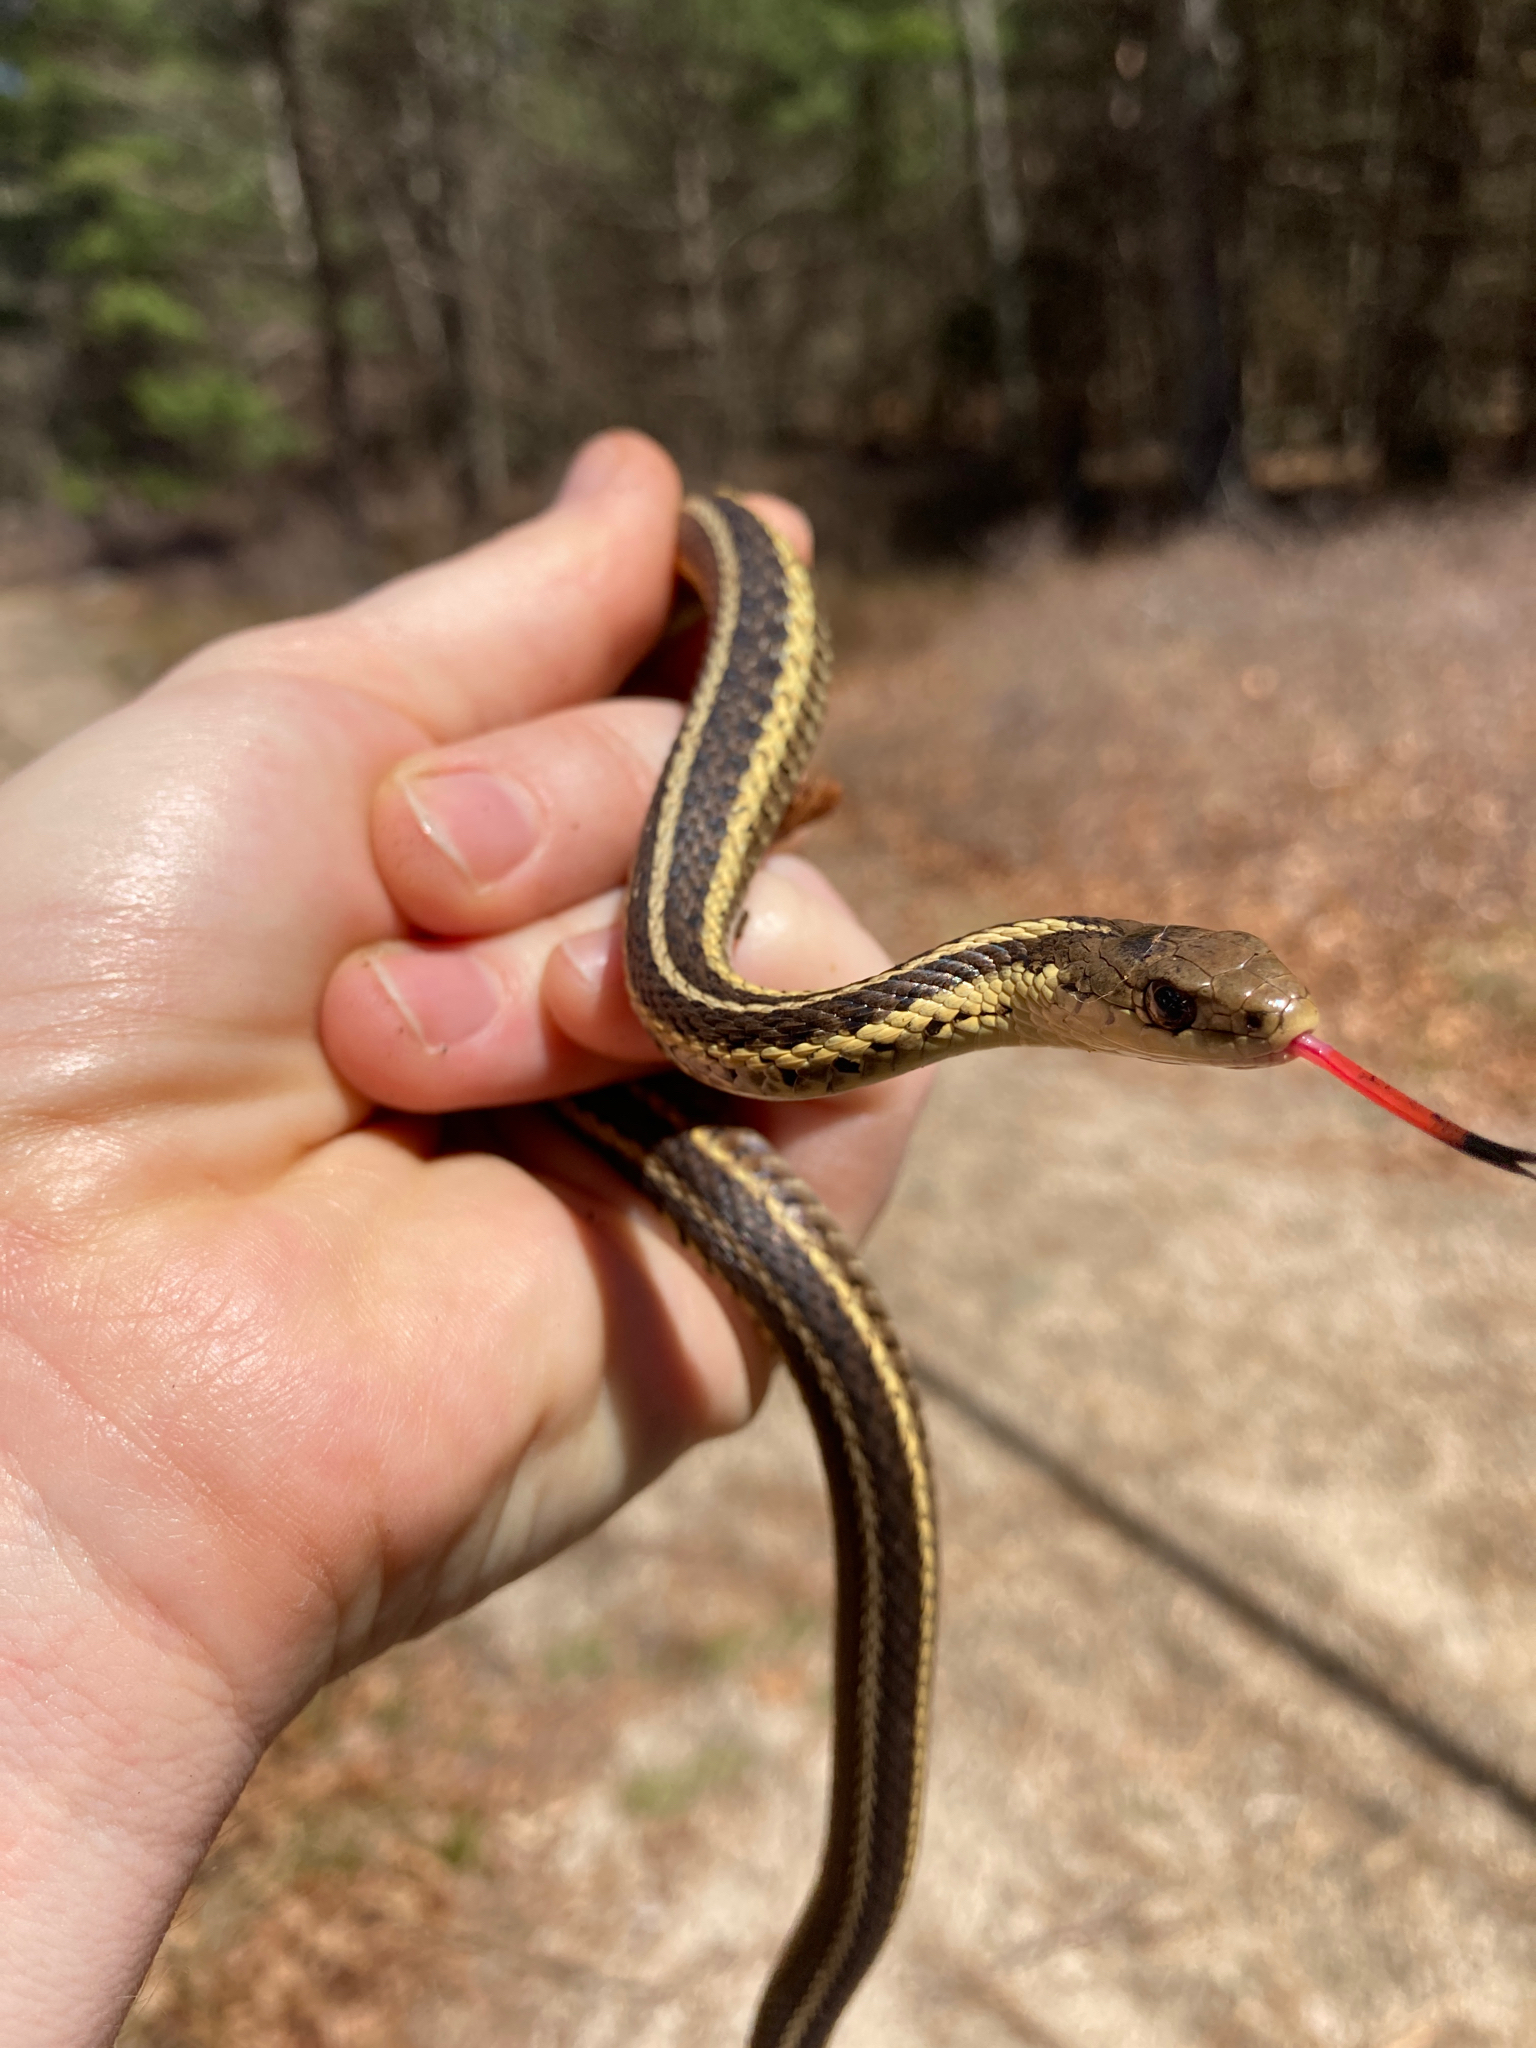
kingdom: Animalia
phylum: Chordata
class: Squamata
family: Colubridae
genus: Thamnophis
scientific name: Thamnophis sirtalis
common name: Common garter snake
